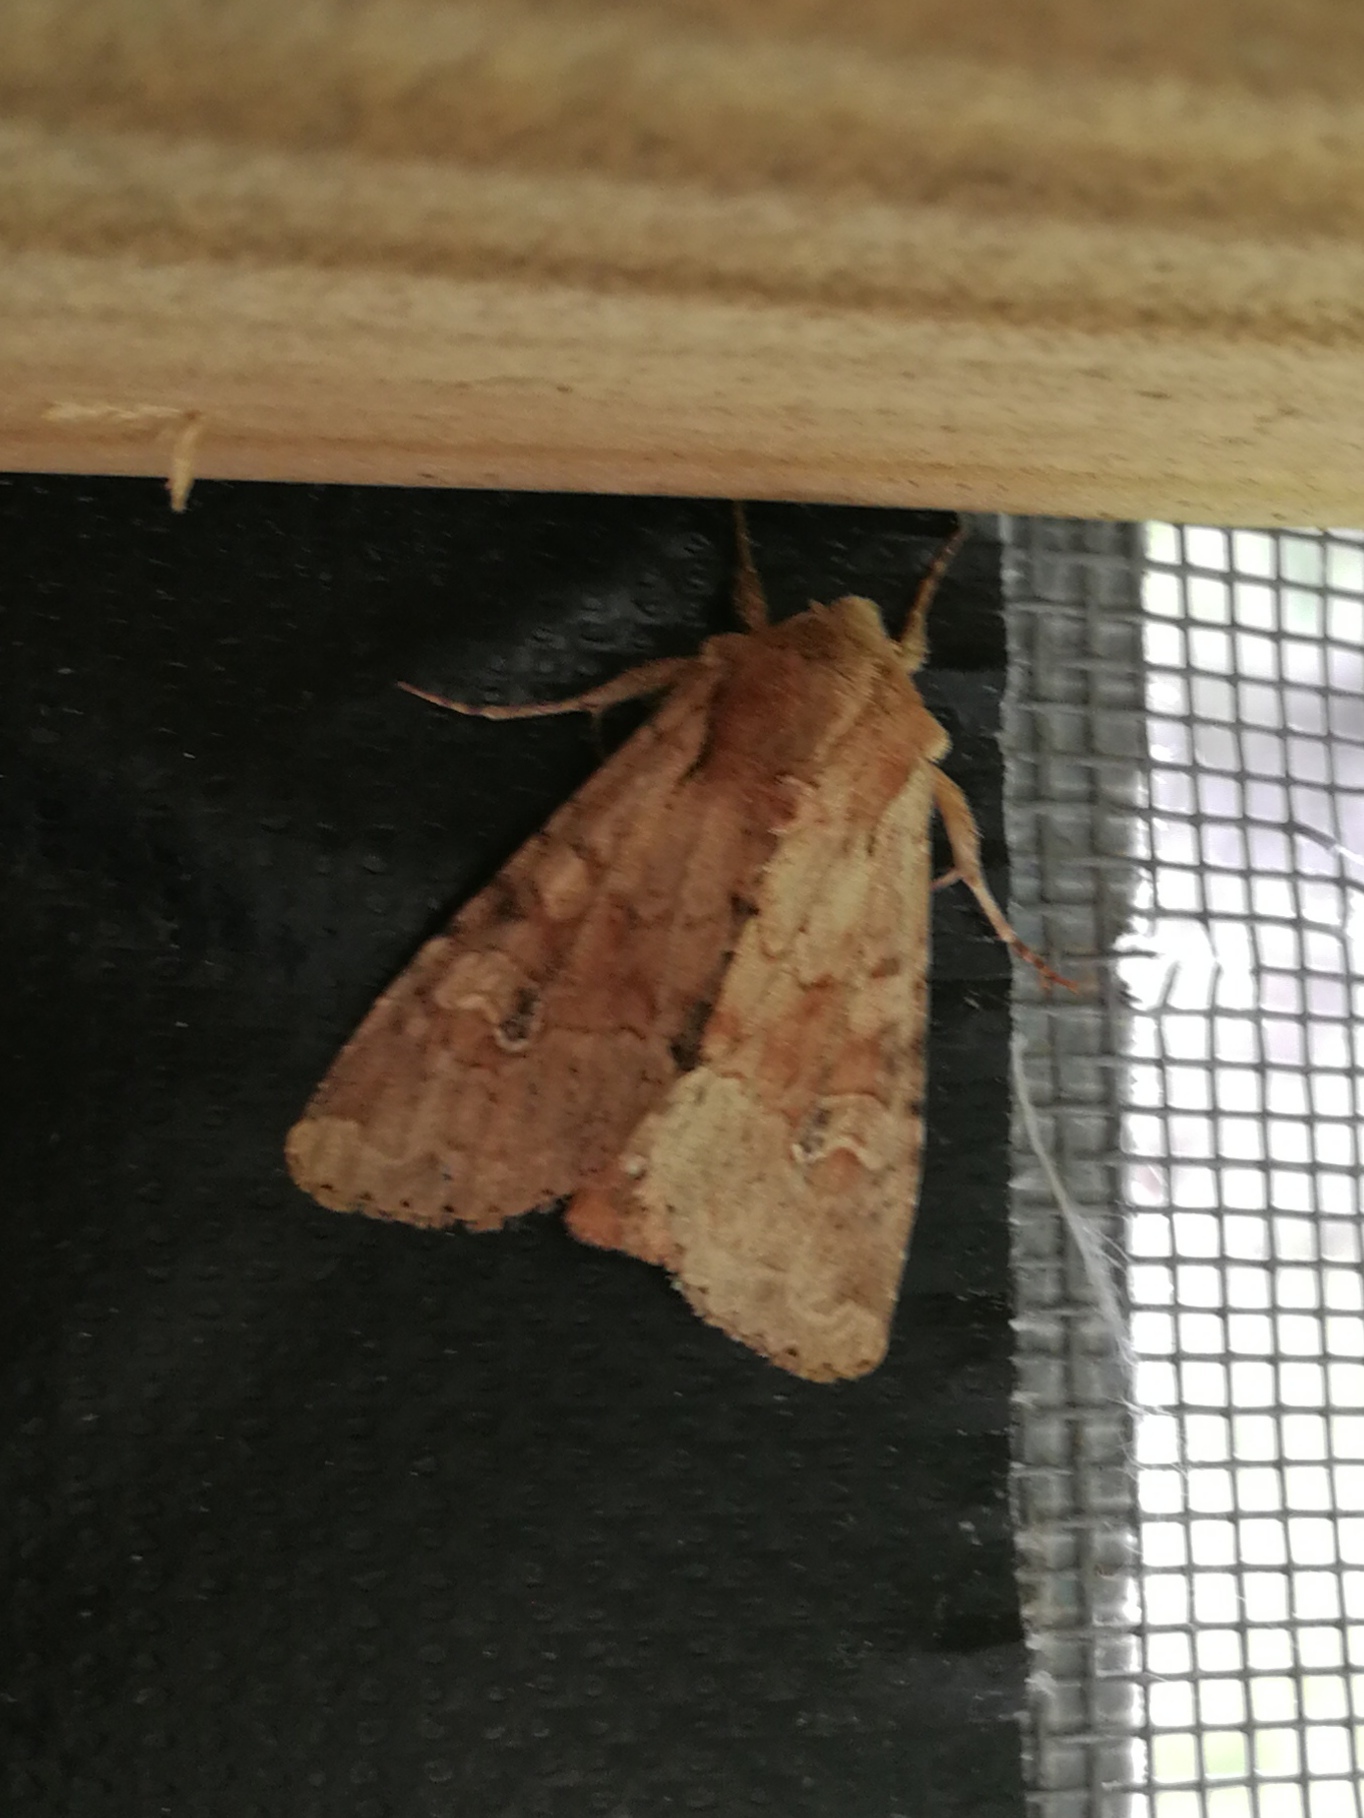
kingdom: Animalia
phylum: Arthropoda
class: Insecta
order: Lepidoptera
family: Noctuidae
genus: Apamea
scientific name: Apamea sordens
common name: Rustic shoulder-knot
